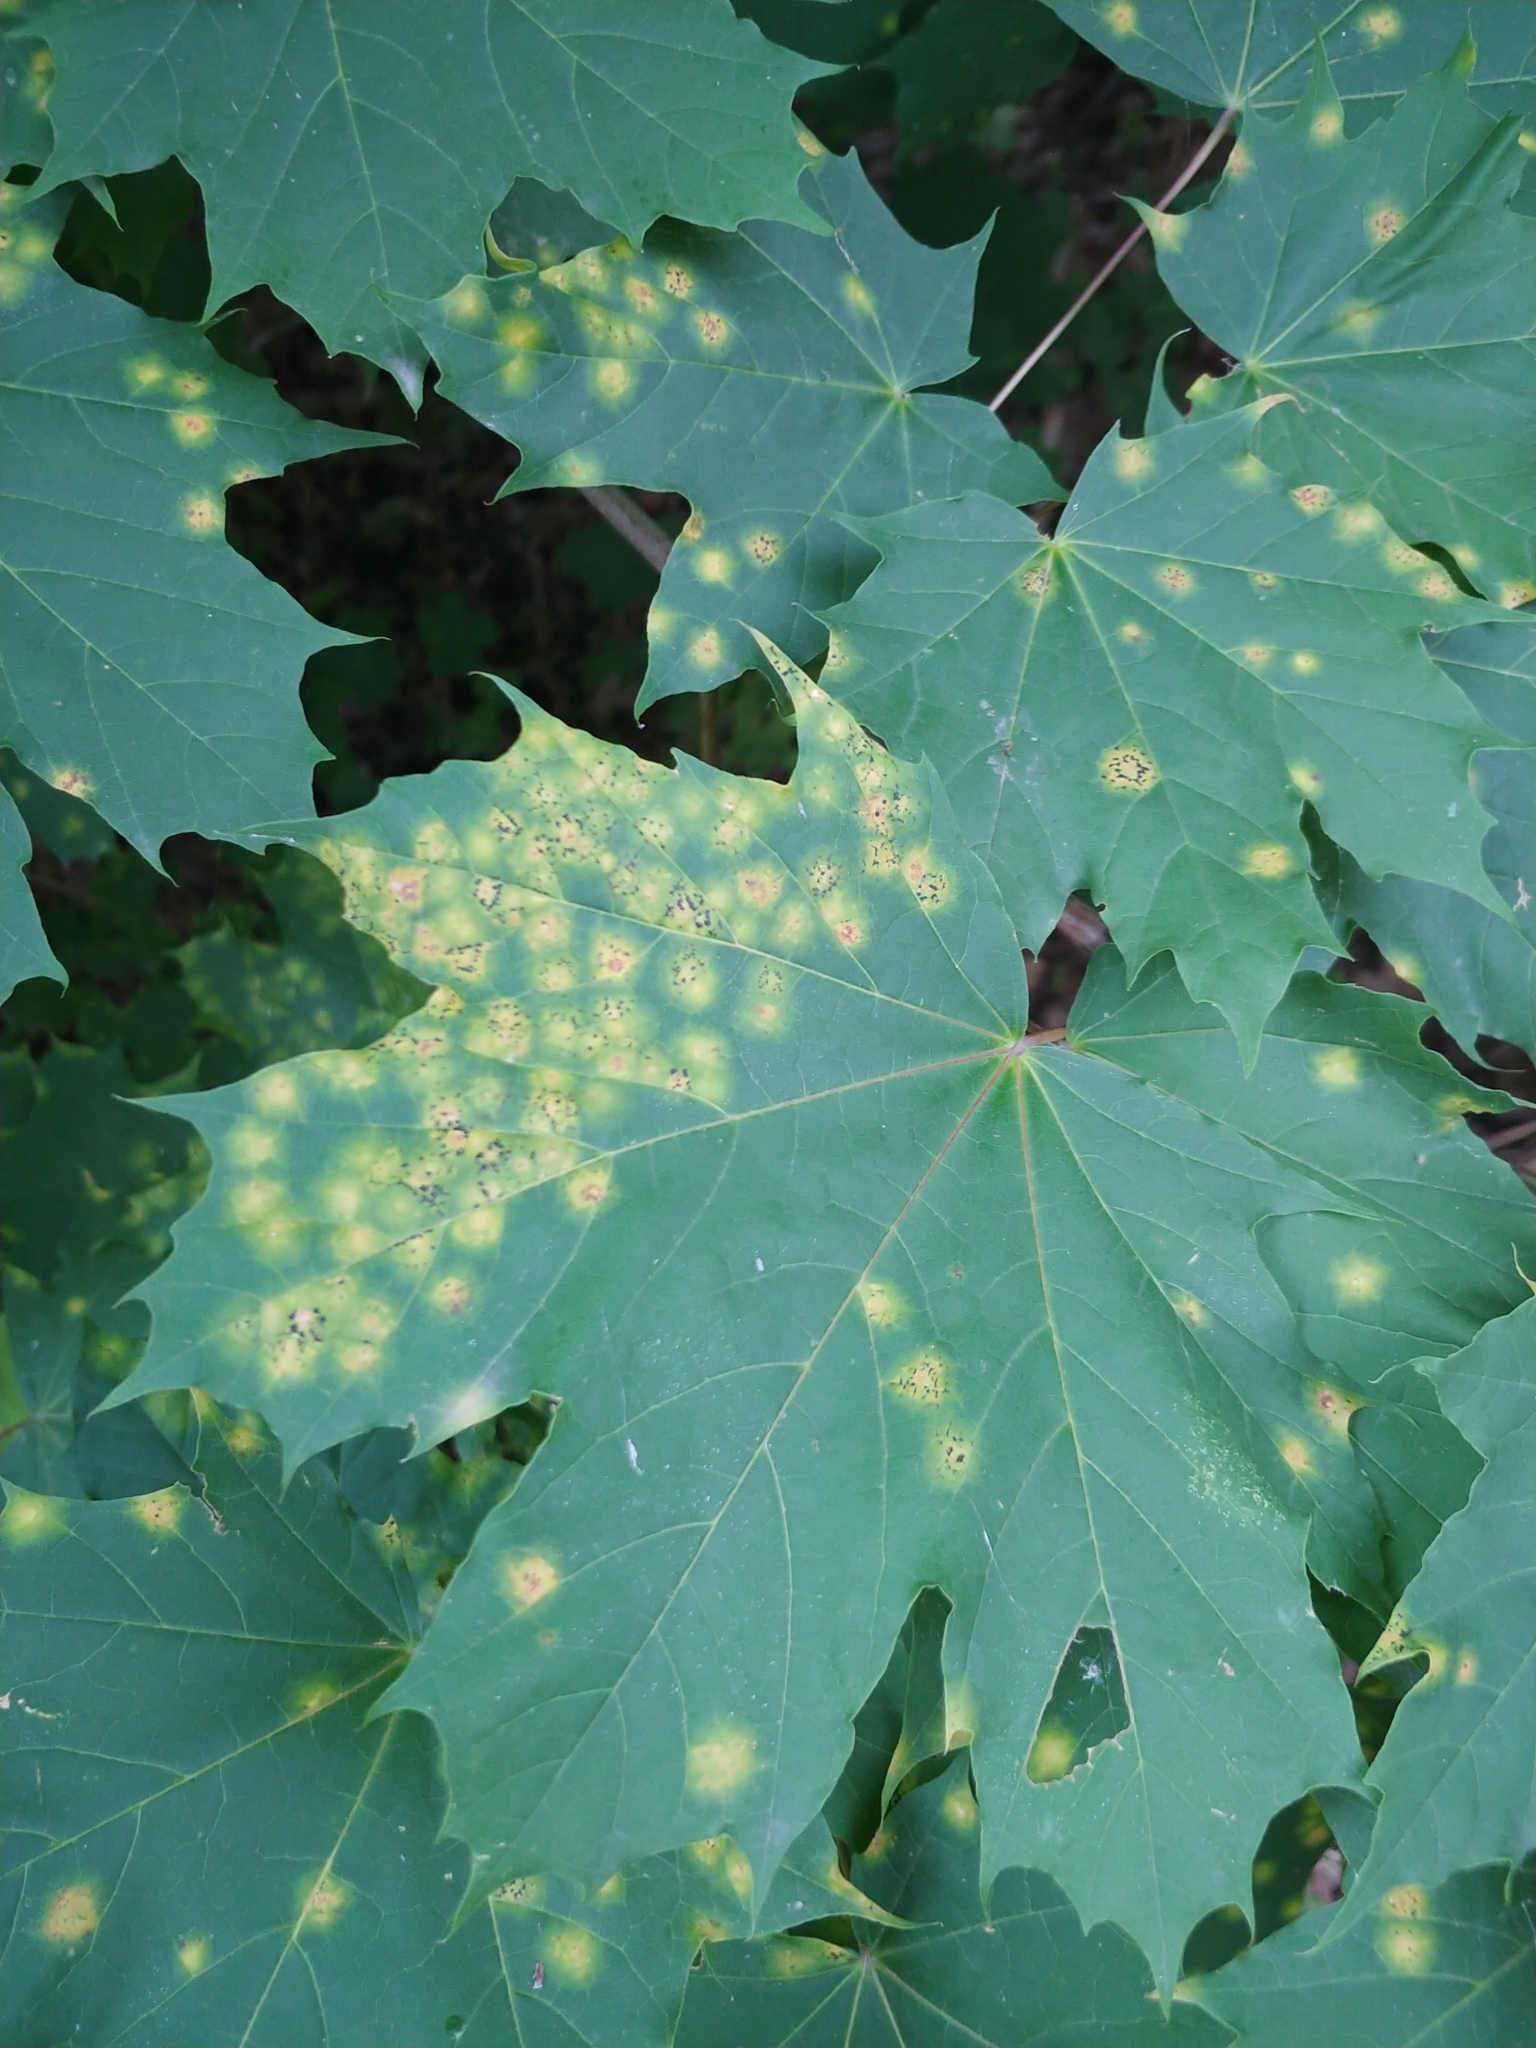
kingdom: Fungi
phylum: Ascomycota
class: Leotiomycetes
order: Rhytismatales
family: Rhytismataceae
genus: Rhytisma
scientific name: Rhytisma acerinum
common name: European tar spot
